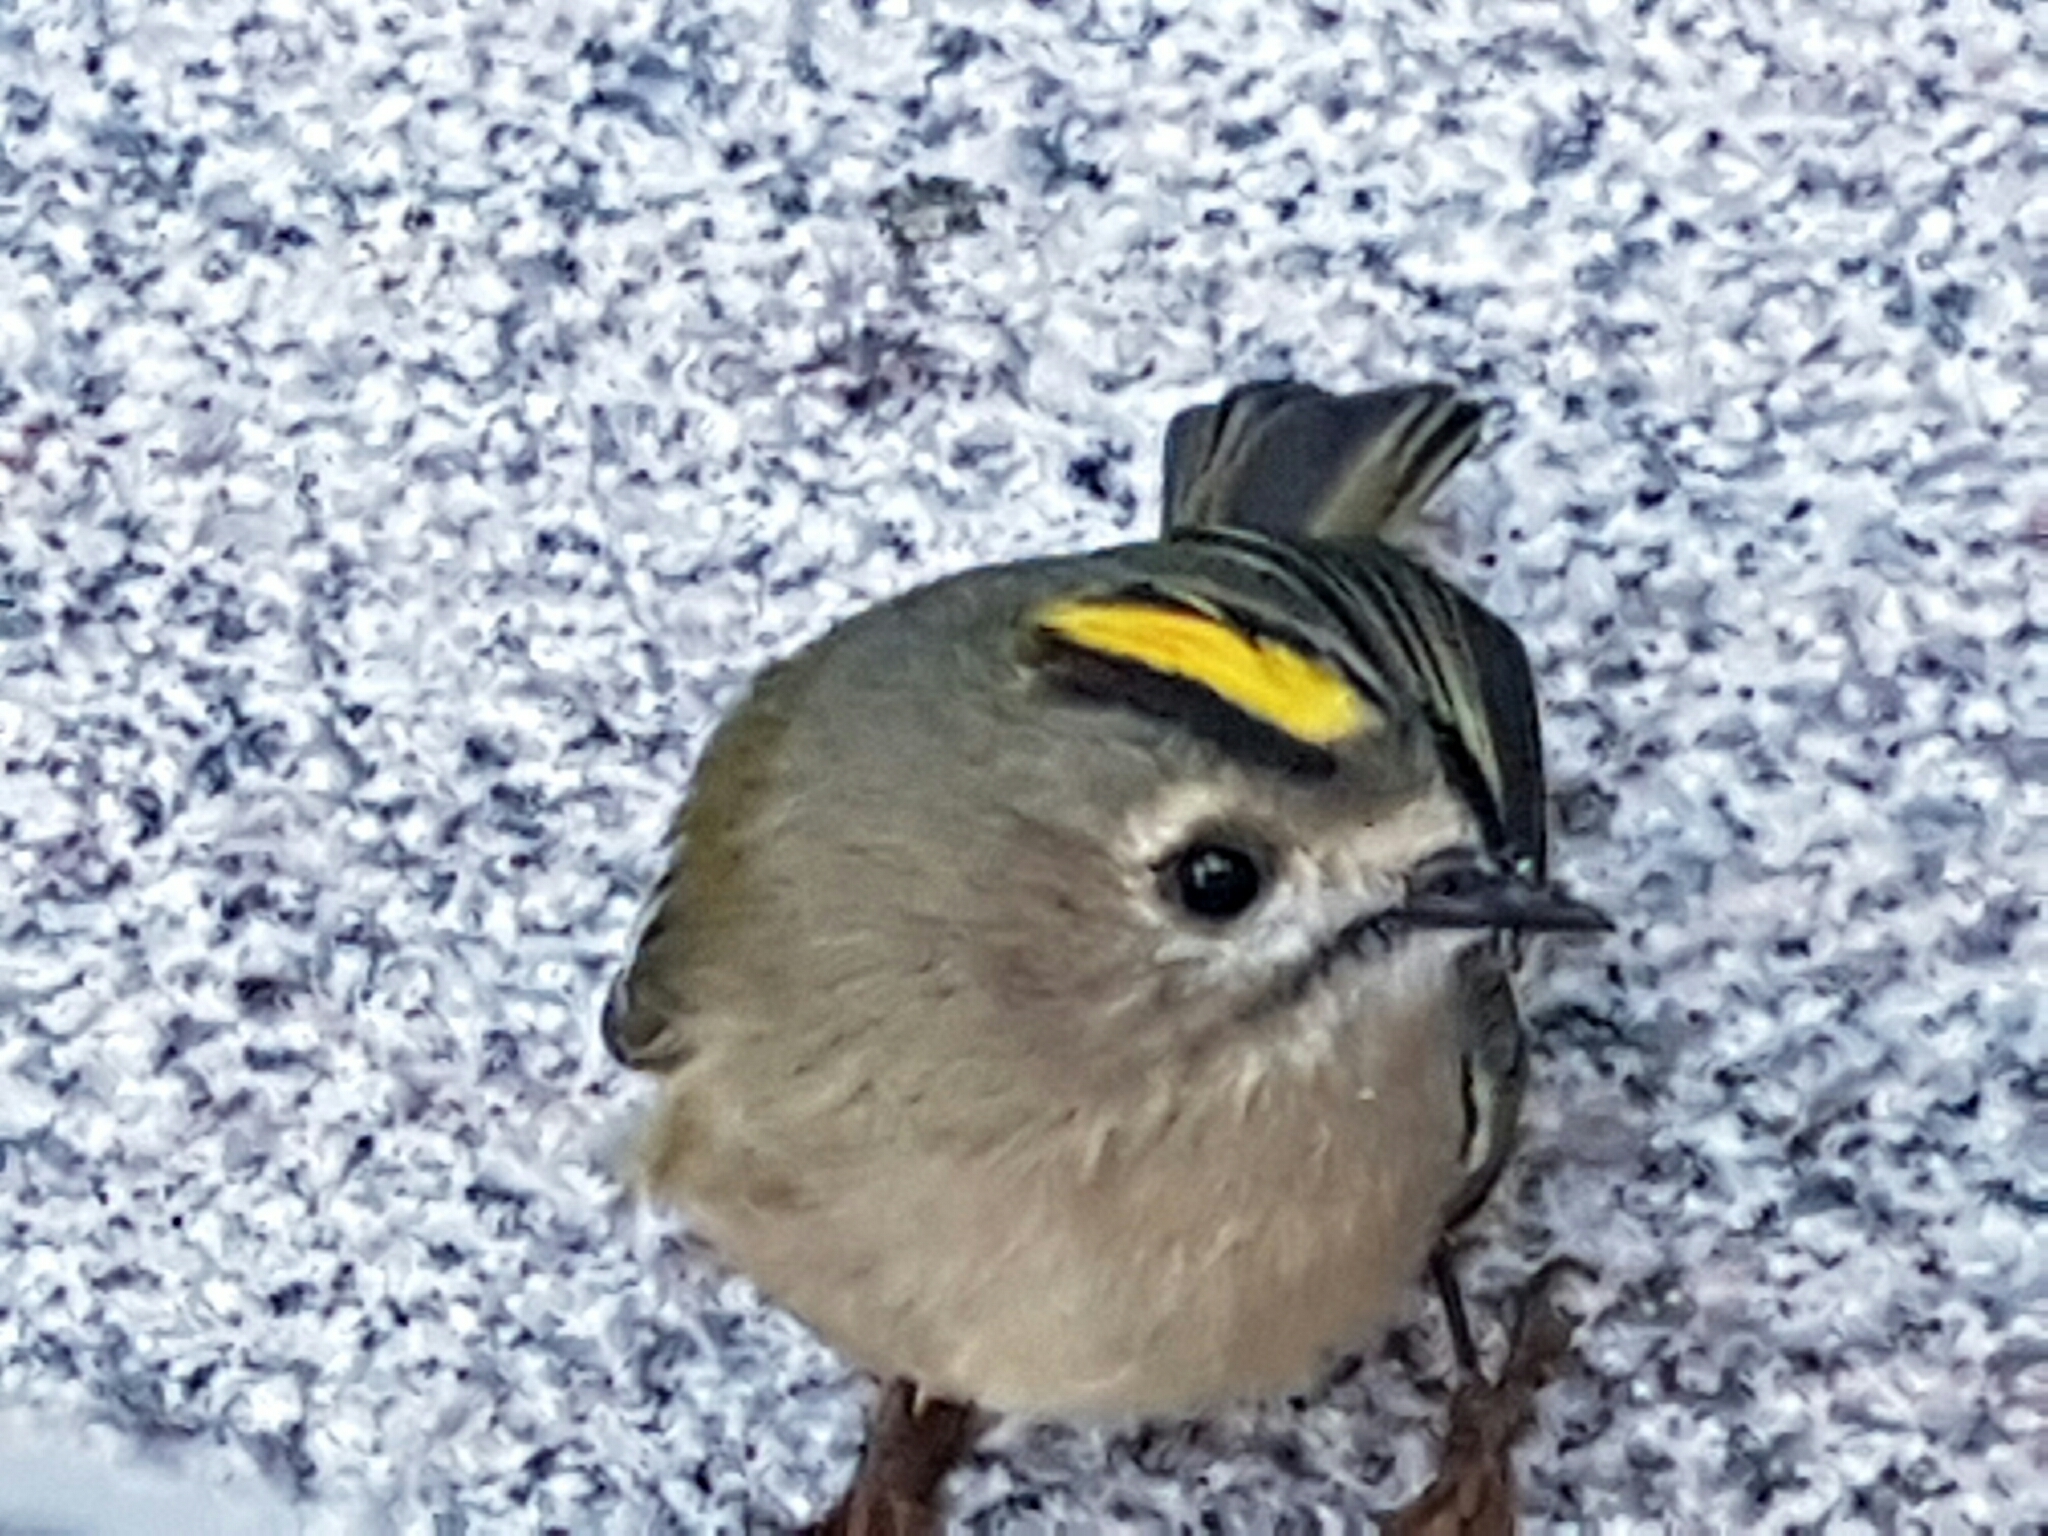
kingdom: Animalia
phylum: Chordata
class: Aves
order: Passeriformes
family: Regulidae
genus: Regulus
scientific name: Regulus regulus
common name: Goldcrest
